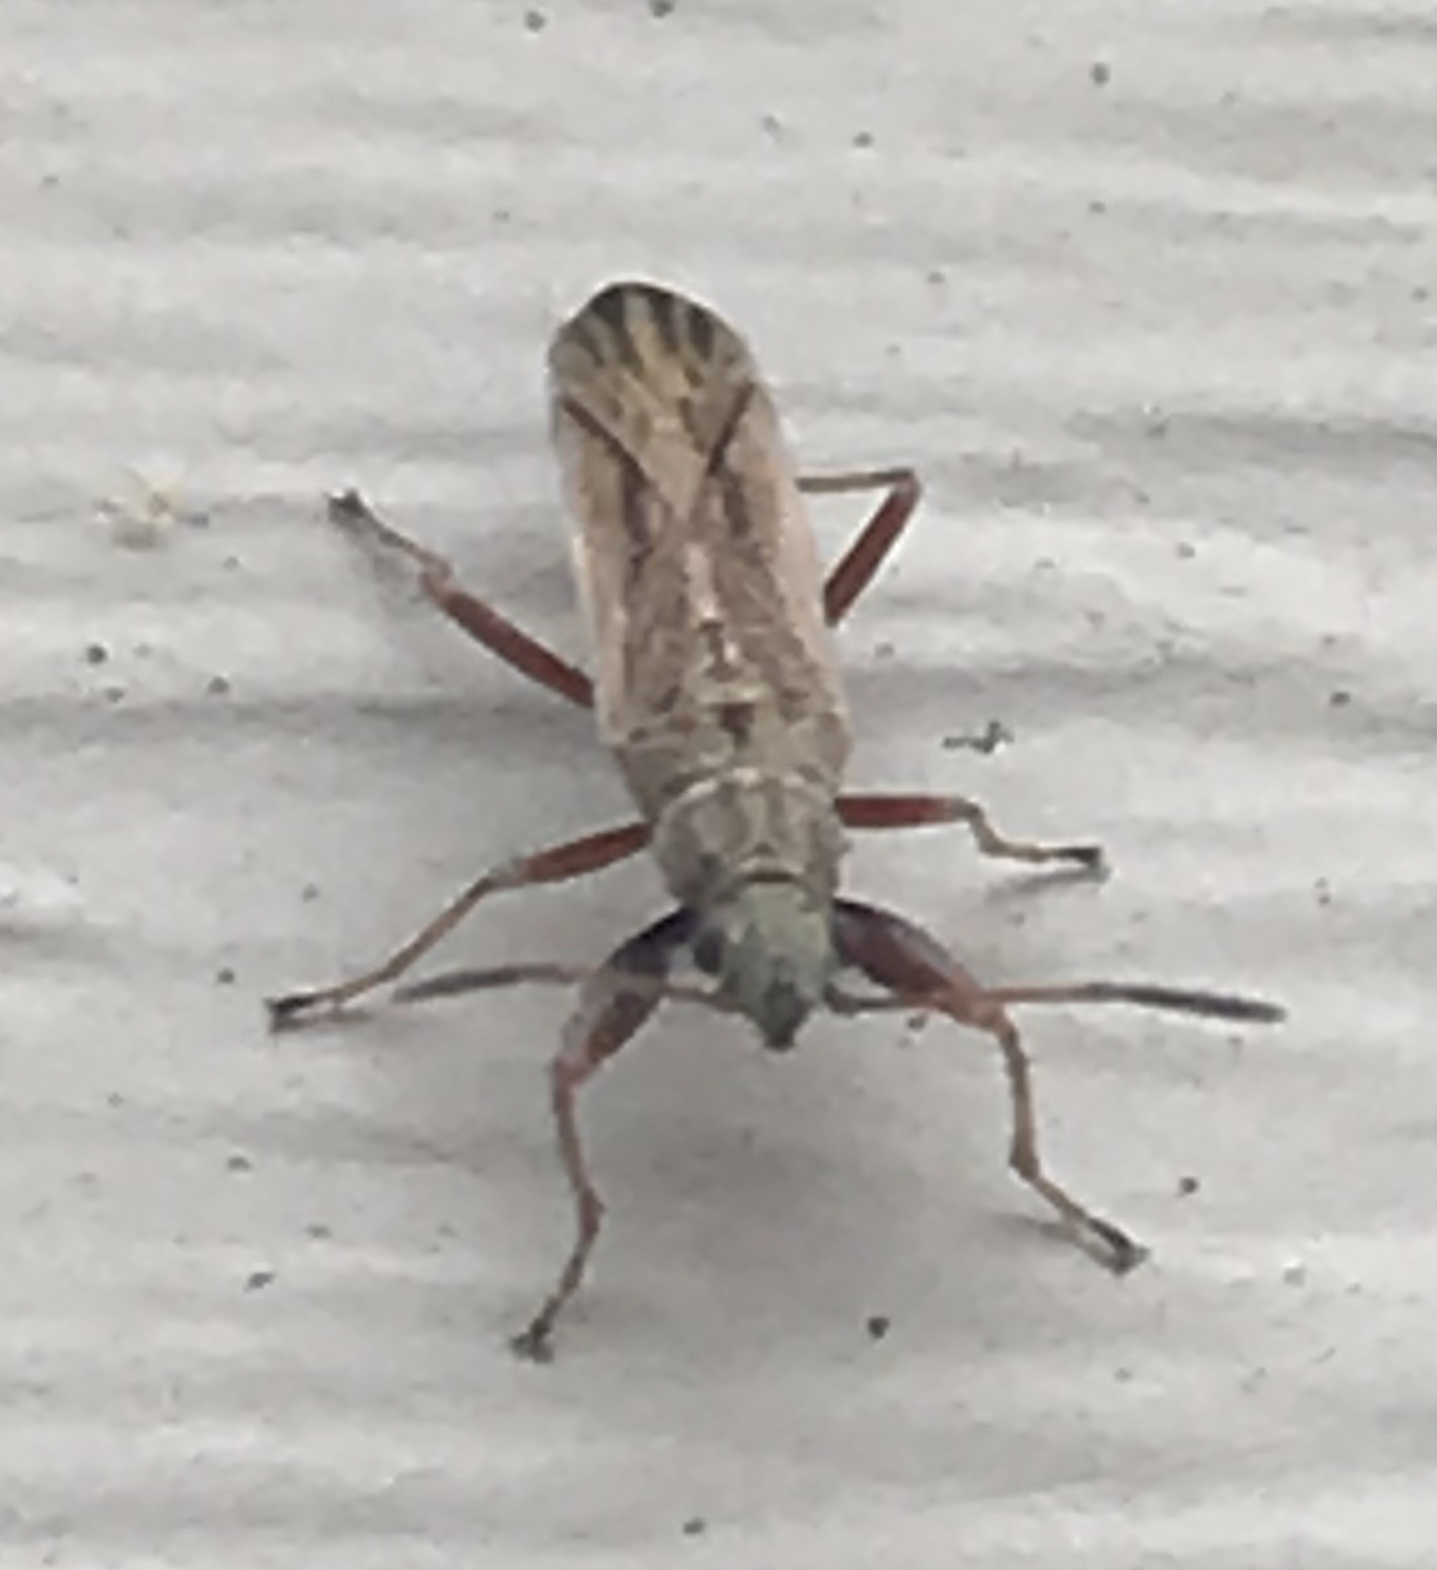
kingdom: Animalia
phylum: Arthropoda
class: Insecta
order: Hemiptera
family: Rhyparochromidae
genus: Paromius
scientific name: Paromius longulus
